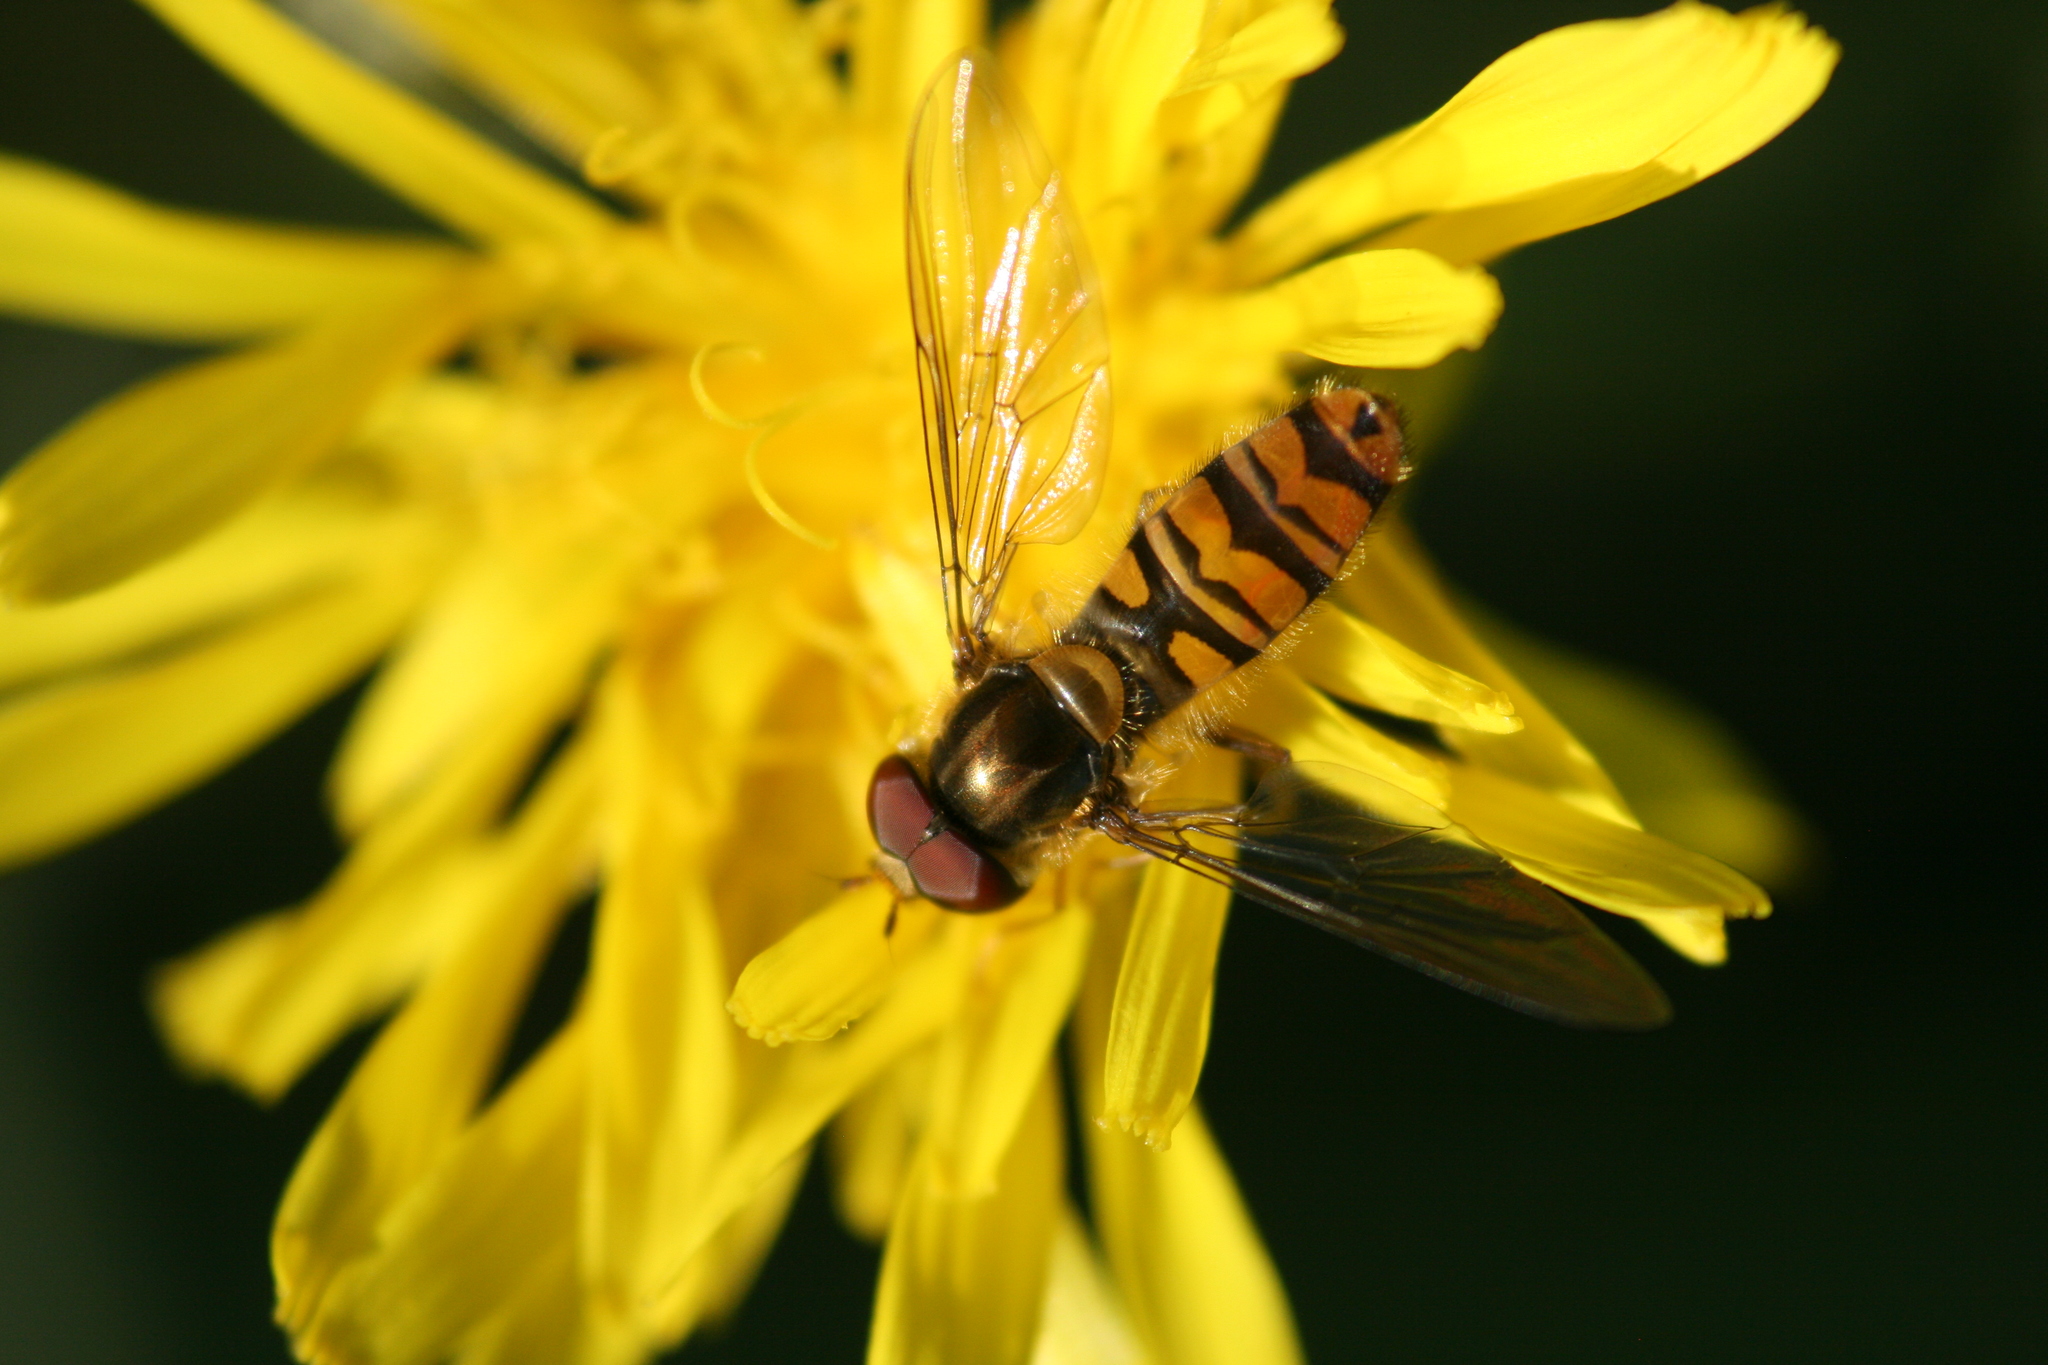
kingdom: Animalia
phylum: Arthropoda
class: Insecta
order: Diptera
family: Syrphidae
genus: Episyrphus
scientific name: Episyrphus balteatus
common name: Marmalade hoverfly
